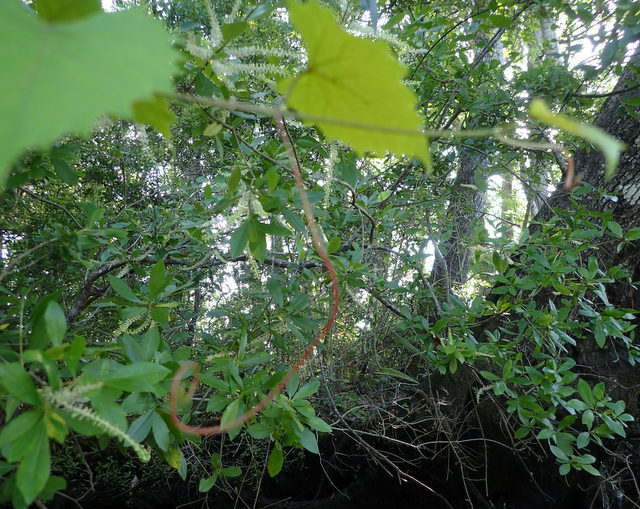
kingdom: Plantae
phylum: Tracheophyta
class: Magnoliopsida
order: Vitales
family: Vitaceae
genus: Vitis
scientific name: Vitis rotundifolia
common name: Muscadine grape
